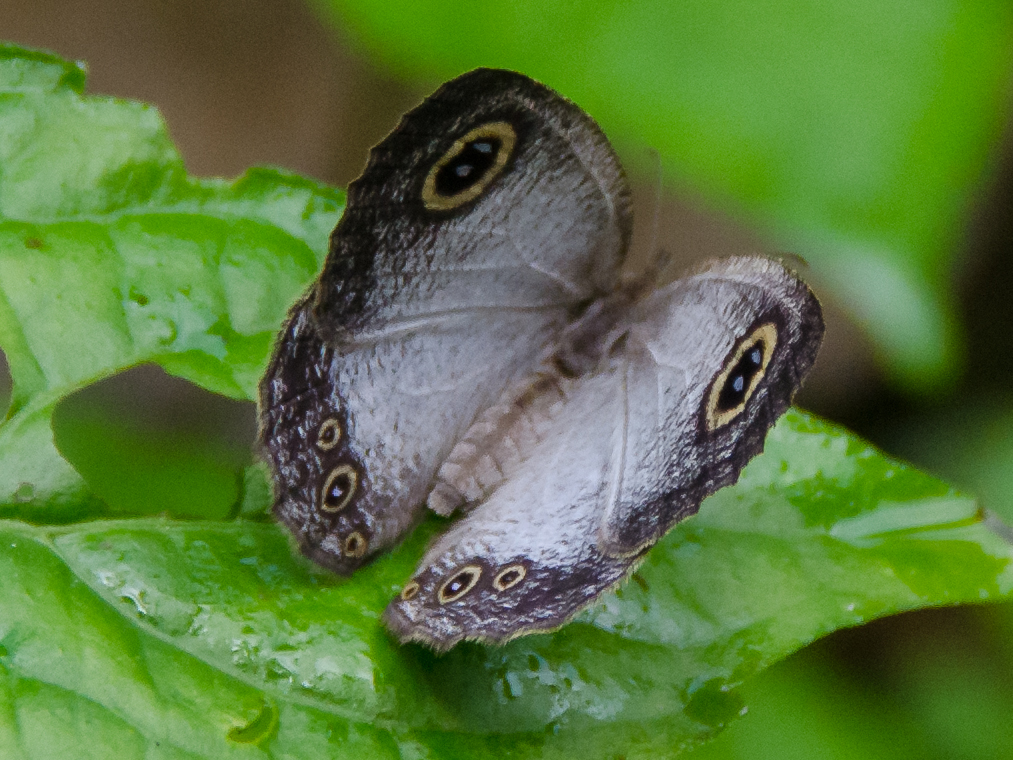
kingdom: Animalia
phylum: Arthropoda
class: Insecta
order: Lepidoptera
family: Nymphalidae
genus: Ypthima
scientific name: Ypthima albida
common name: Silver ringlet
